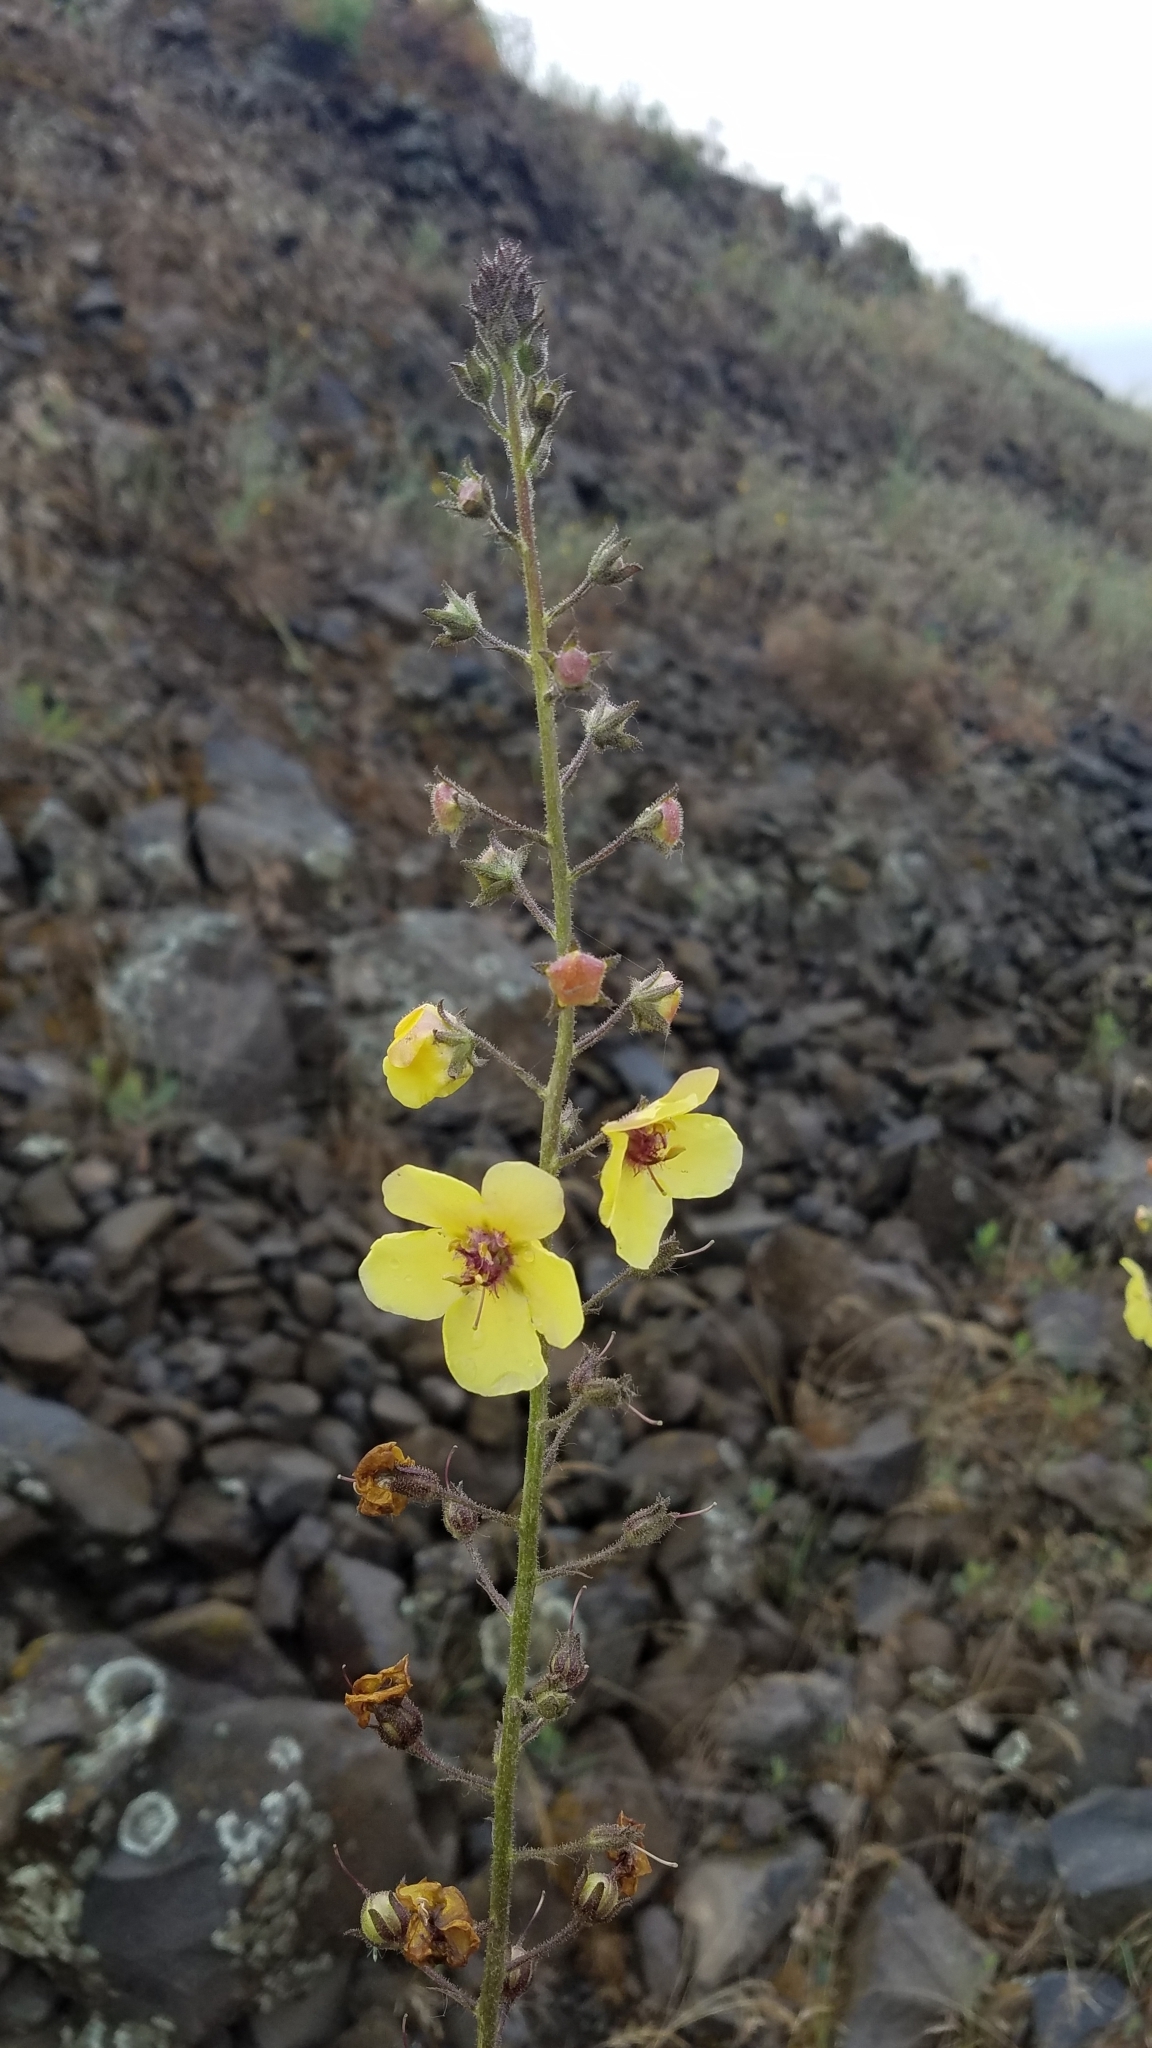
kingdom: Plantae
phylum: Tracheophyta
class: Magnoliopsida
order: Lamiales
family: Scrophulariaceae
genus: Verbascum
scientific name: Verbascum blattaria
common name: Moth mullein
